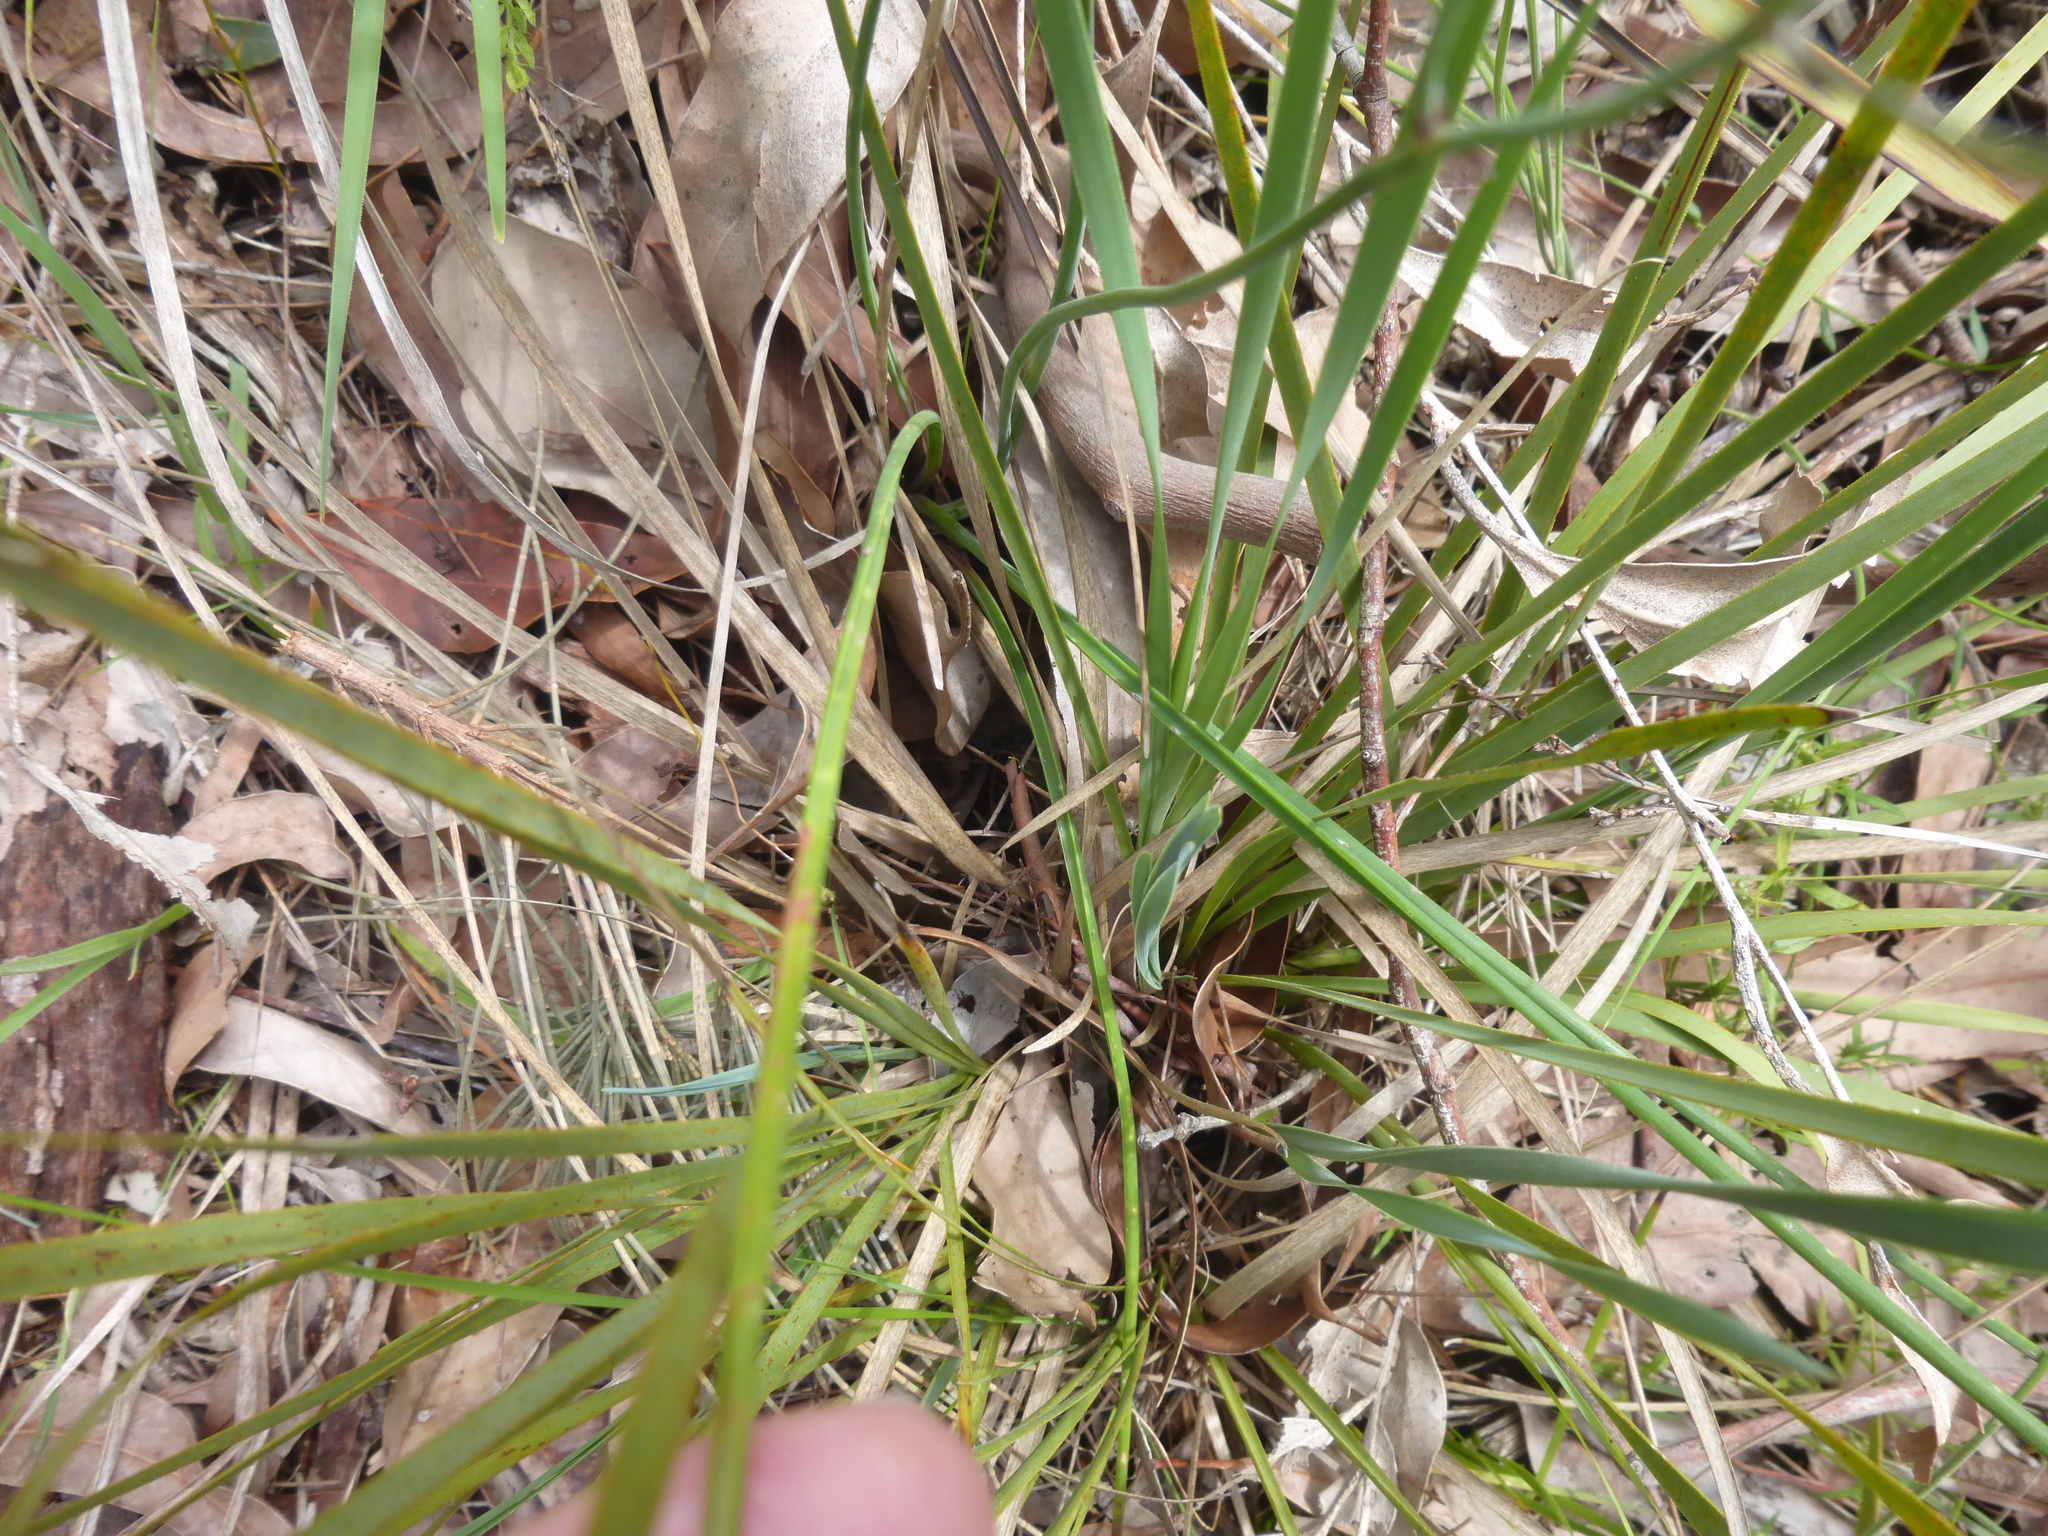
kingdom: Plantae
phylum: Tracheophyta
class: Liliopsida
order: Asparagales
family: Asparagaceae
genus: Thysanotus
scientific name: Thysanotus tuberosus
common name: Common fringed-lily
